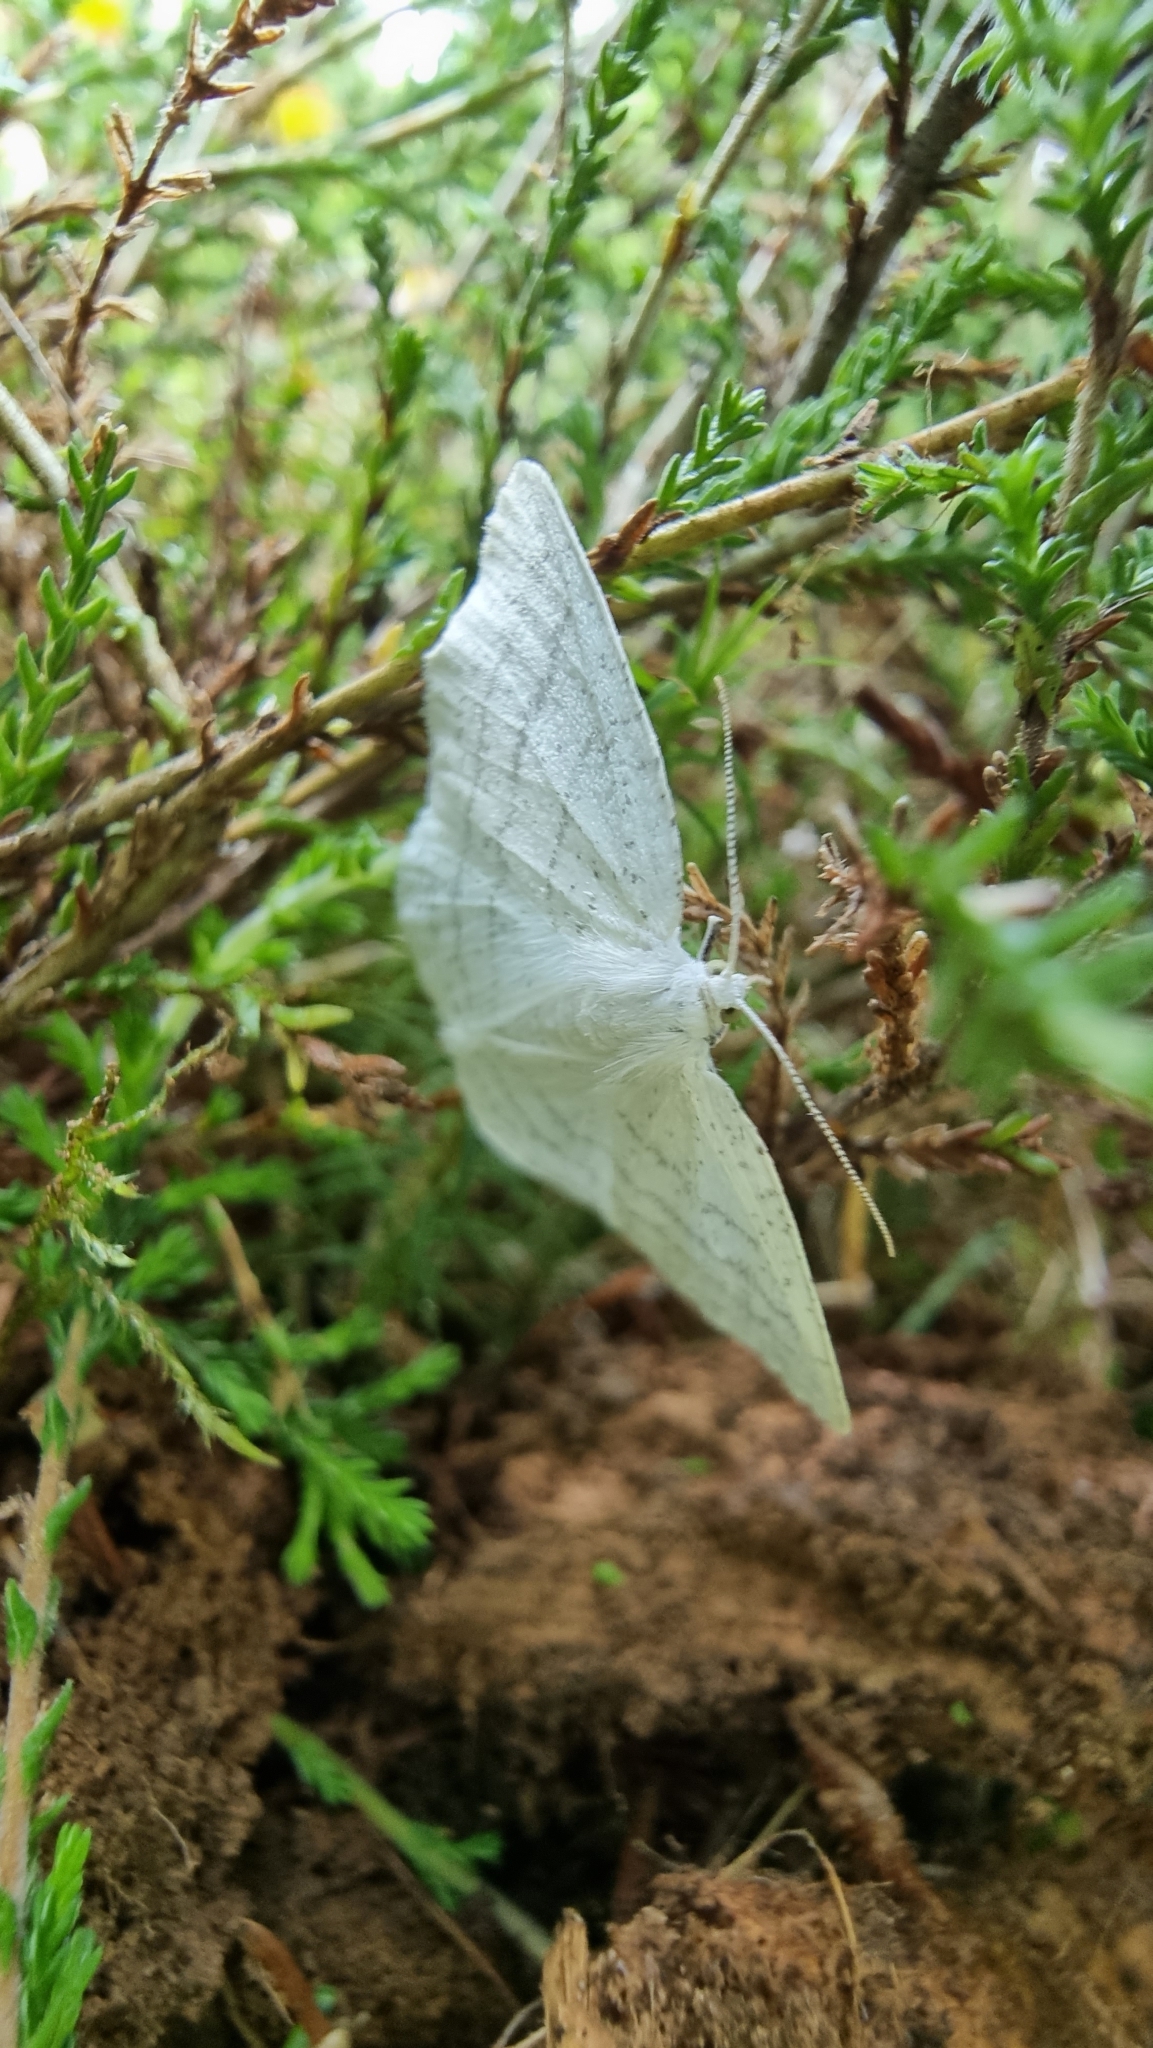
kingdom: Animalia
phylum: Arthropoda
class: Insecta
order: Lepidoptera
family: Geometridae
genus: Cabera
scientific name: Cabera pusaria
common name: Common white wave
